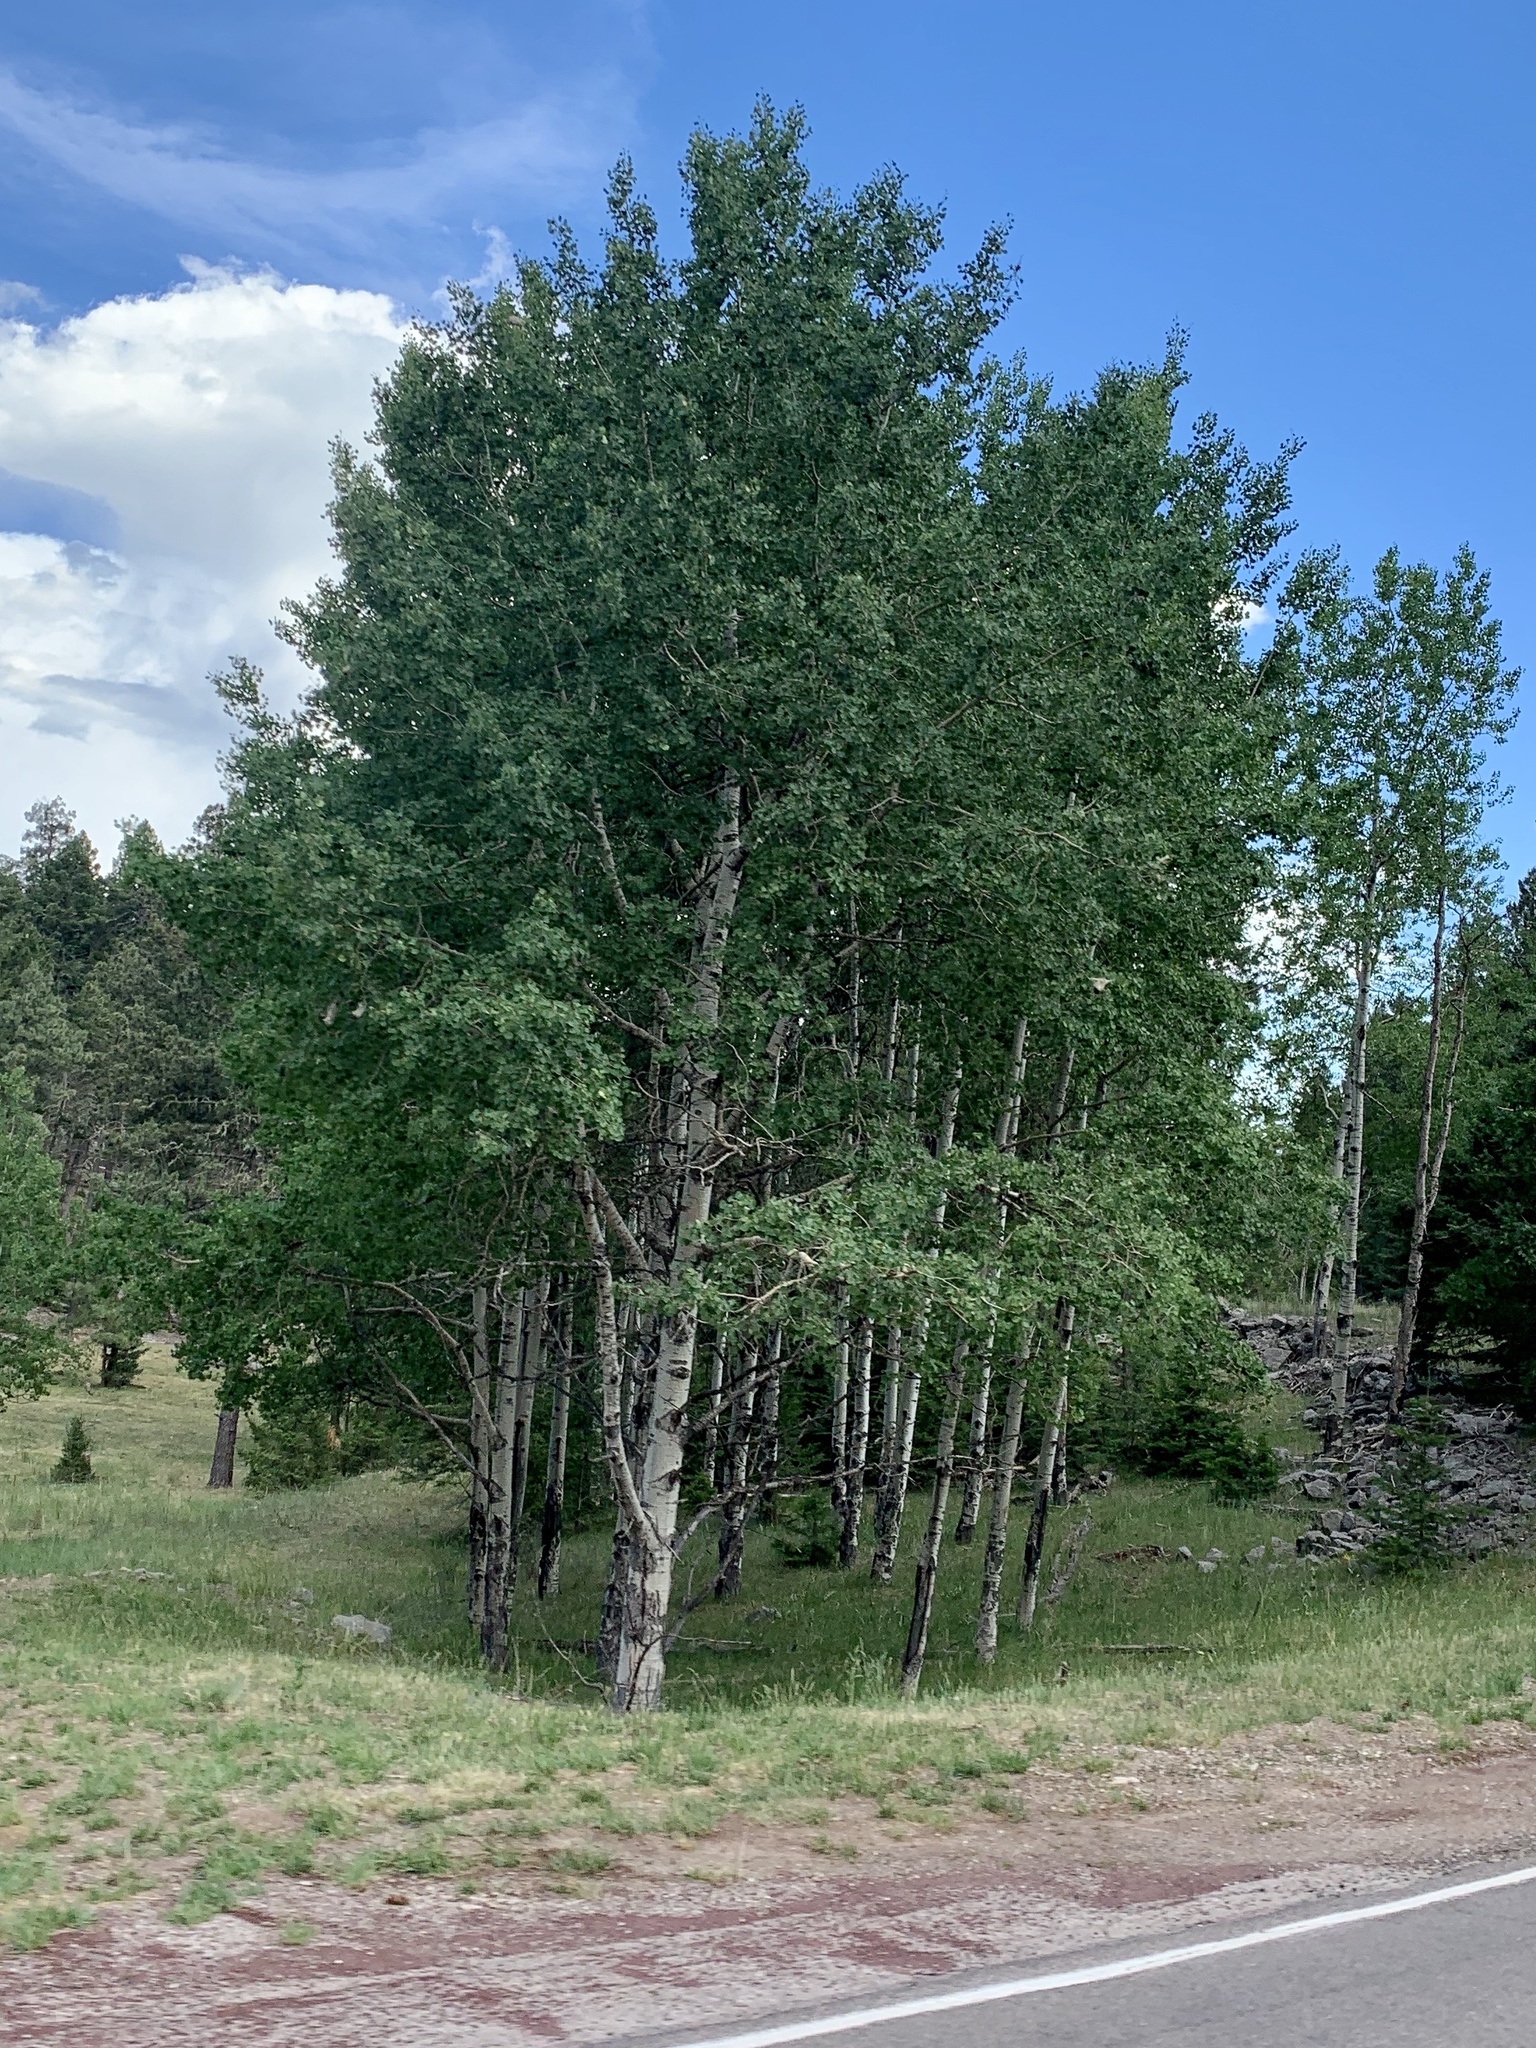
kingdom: Plantae
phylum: Tracheophyta
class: Magnoliopsida
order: Malpighiales
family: Salicaceae
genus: Populus
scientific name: Populus tremuloides
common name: Quaking aspen
